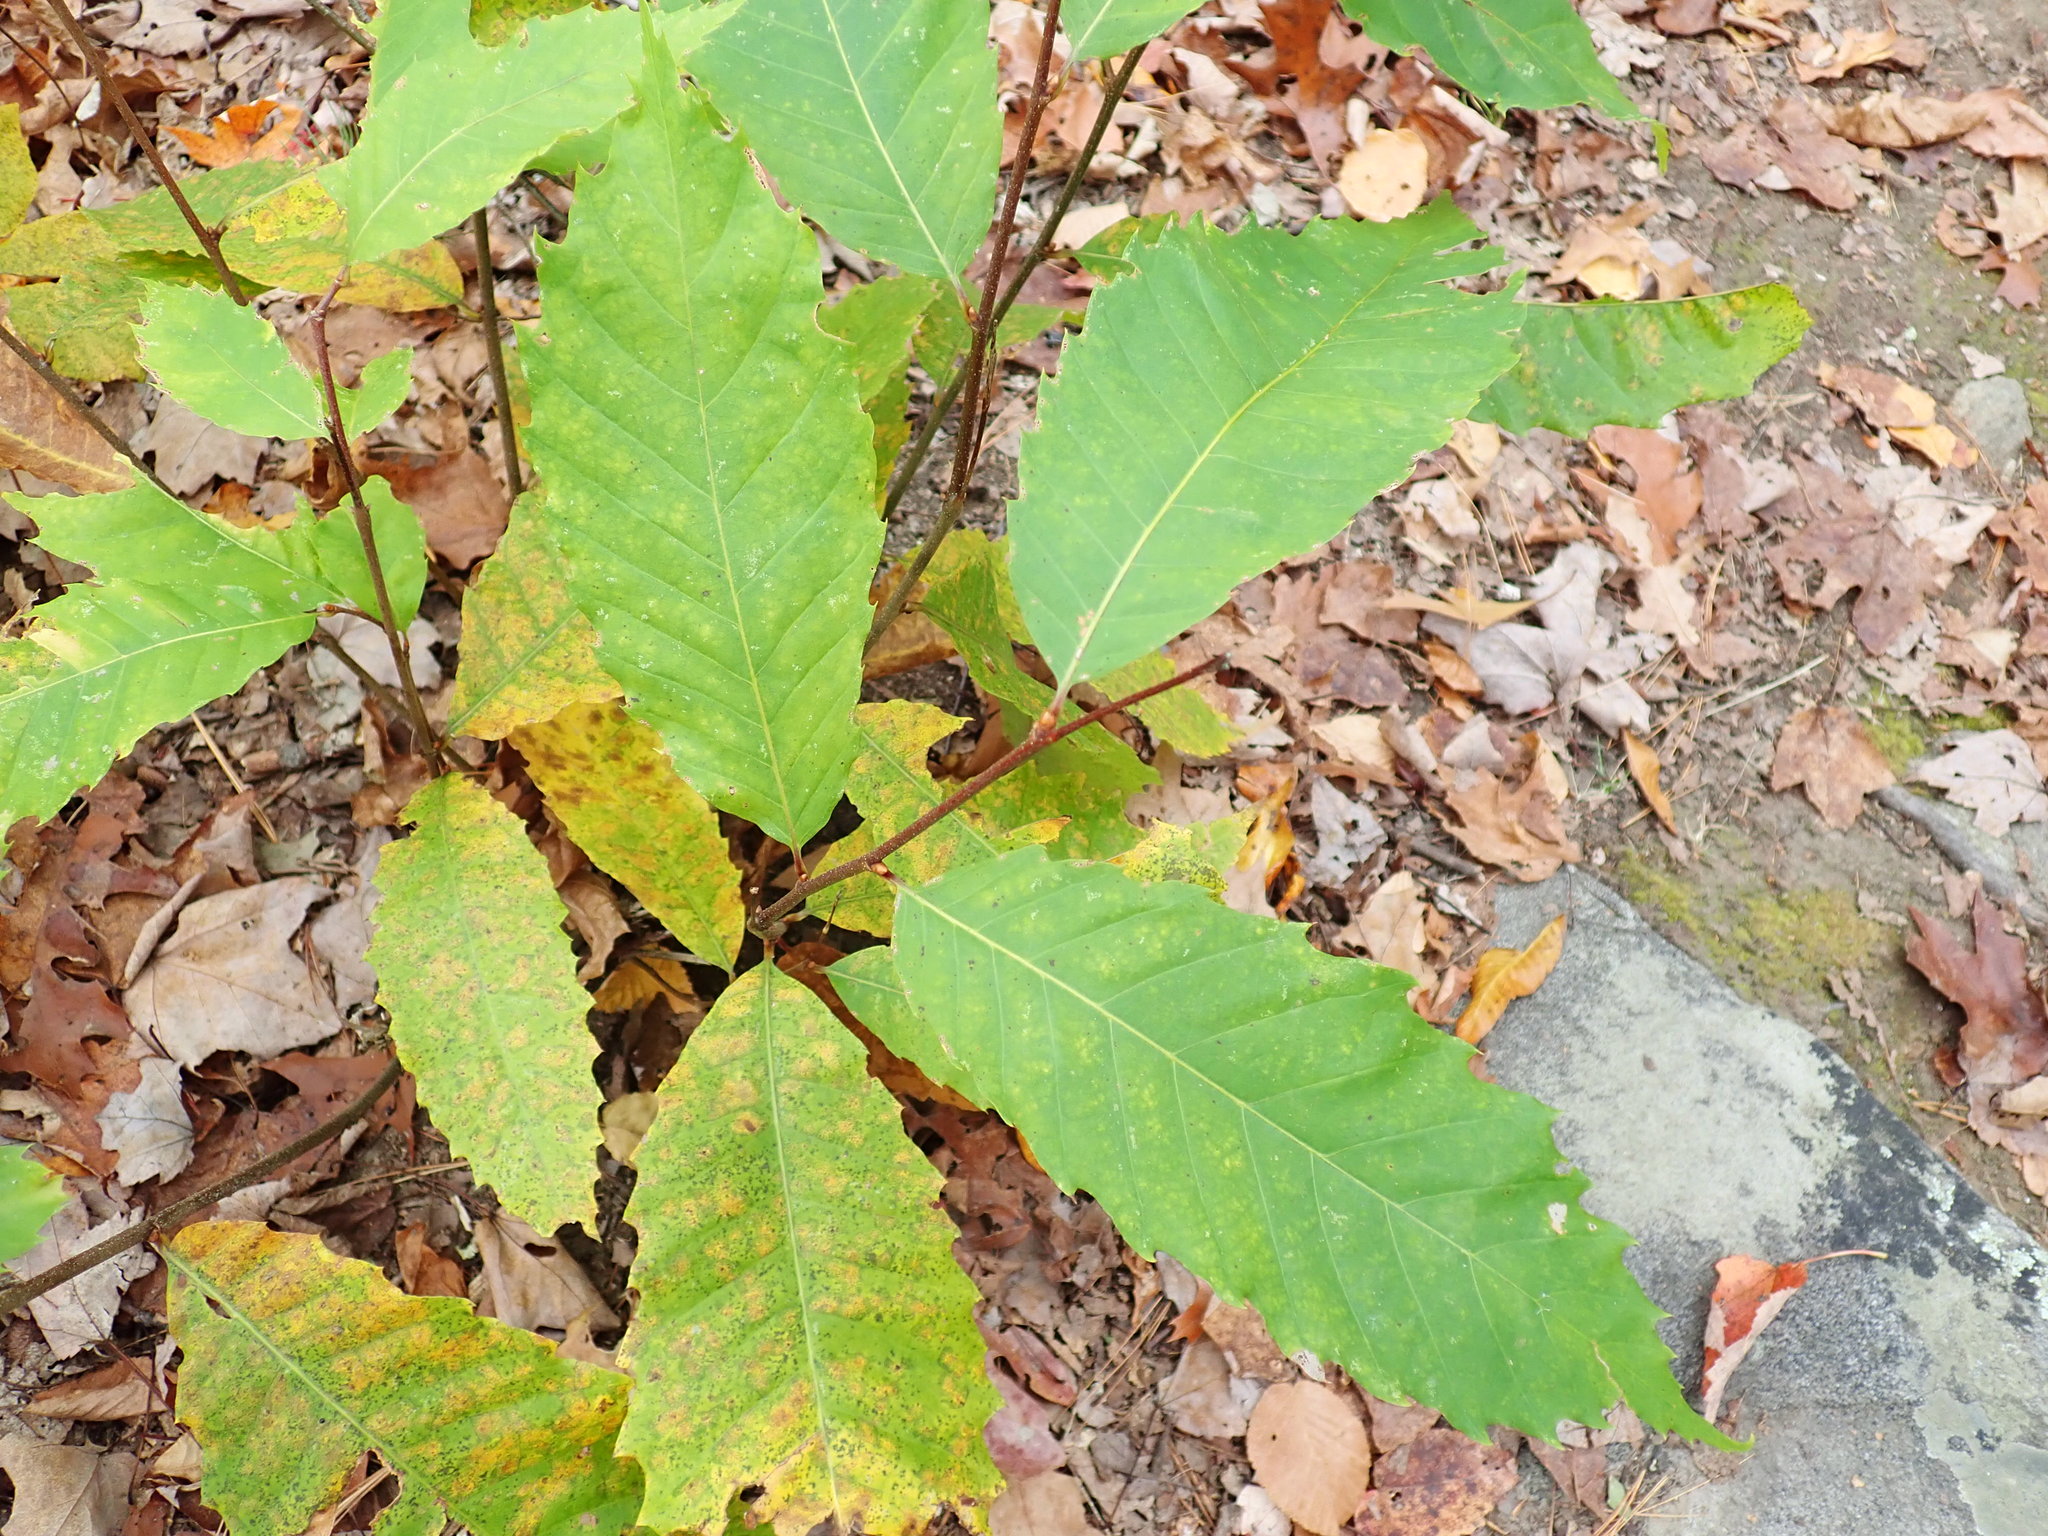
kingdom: Plantae
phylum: Tracheophyta
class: Magnoliopsida
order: Fagales
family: Fagaceae
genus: Castanea
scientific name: Castanea dentata
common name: American chestnut
